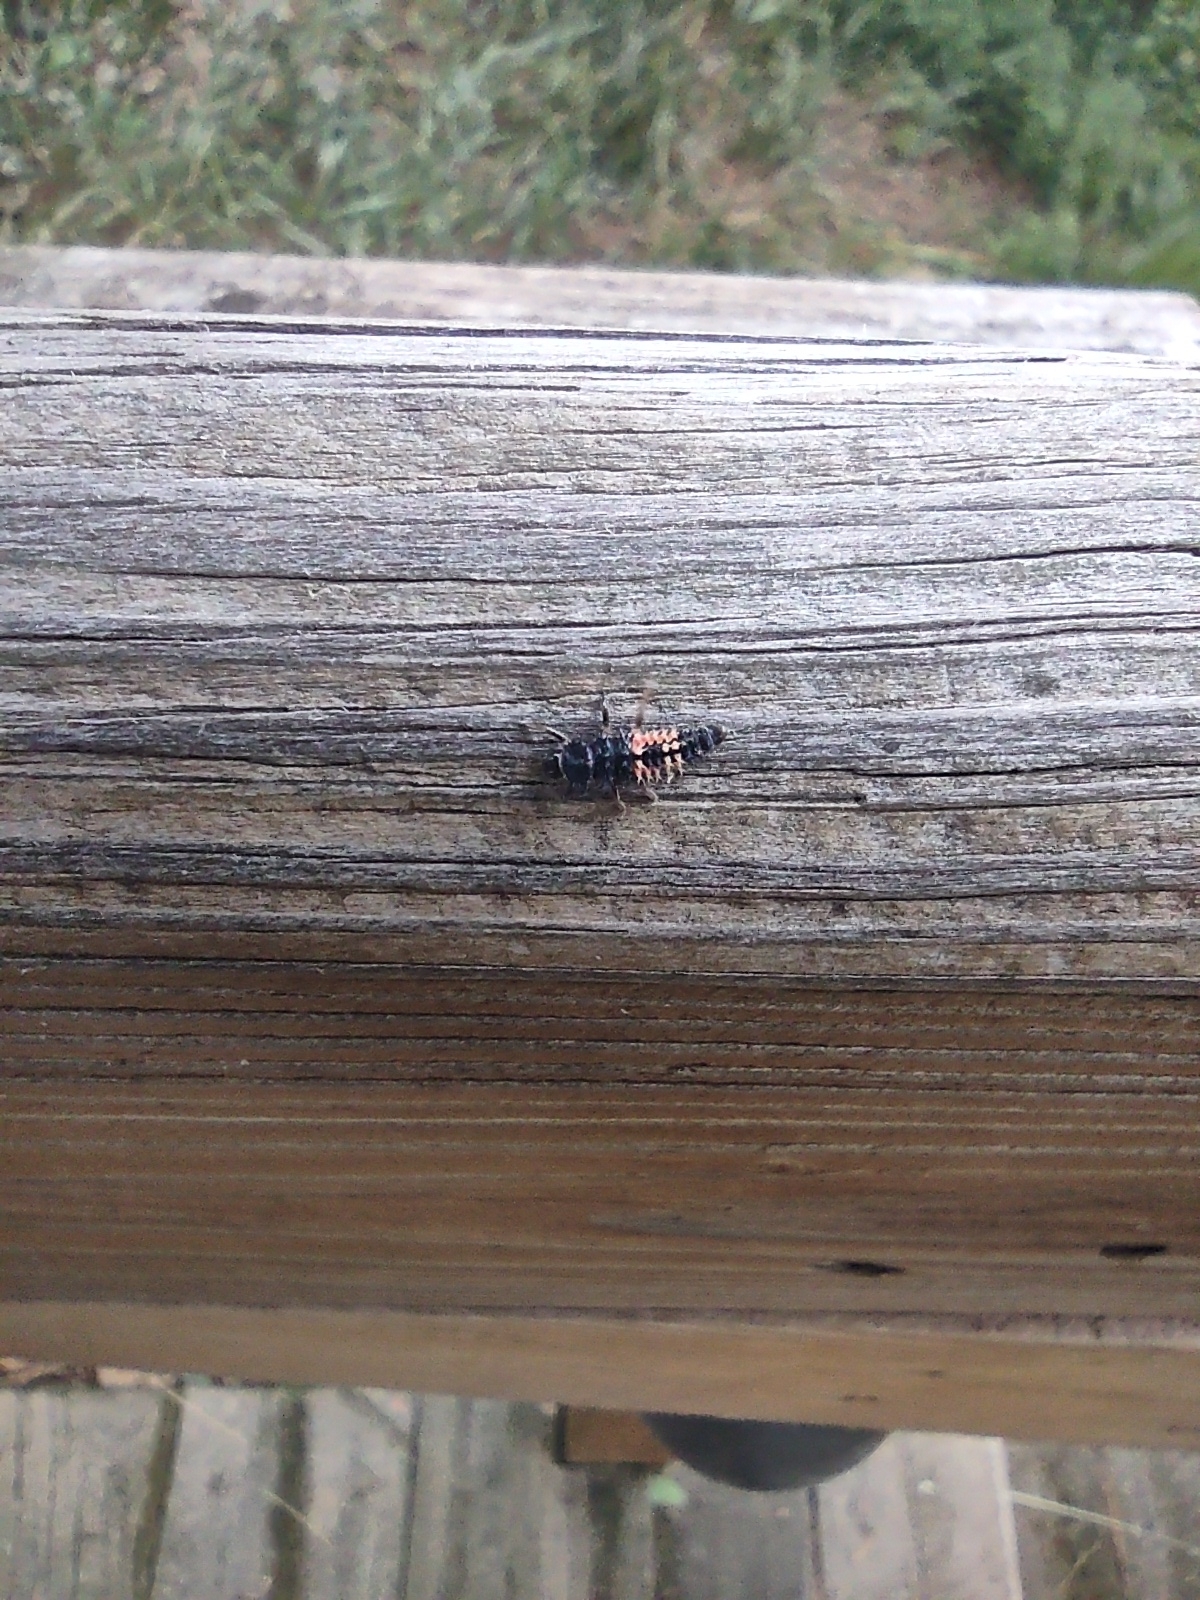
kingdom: Animalia
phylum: Arthropoda
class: Insecta
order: Coleoptera
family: Coccinellidae
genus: Harmonia
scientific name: Harmonia axyridis
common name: Harlequin ladybird
